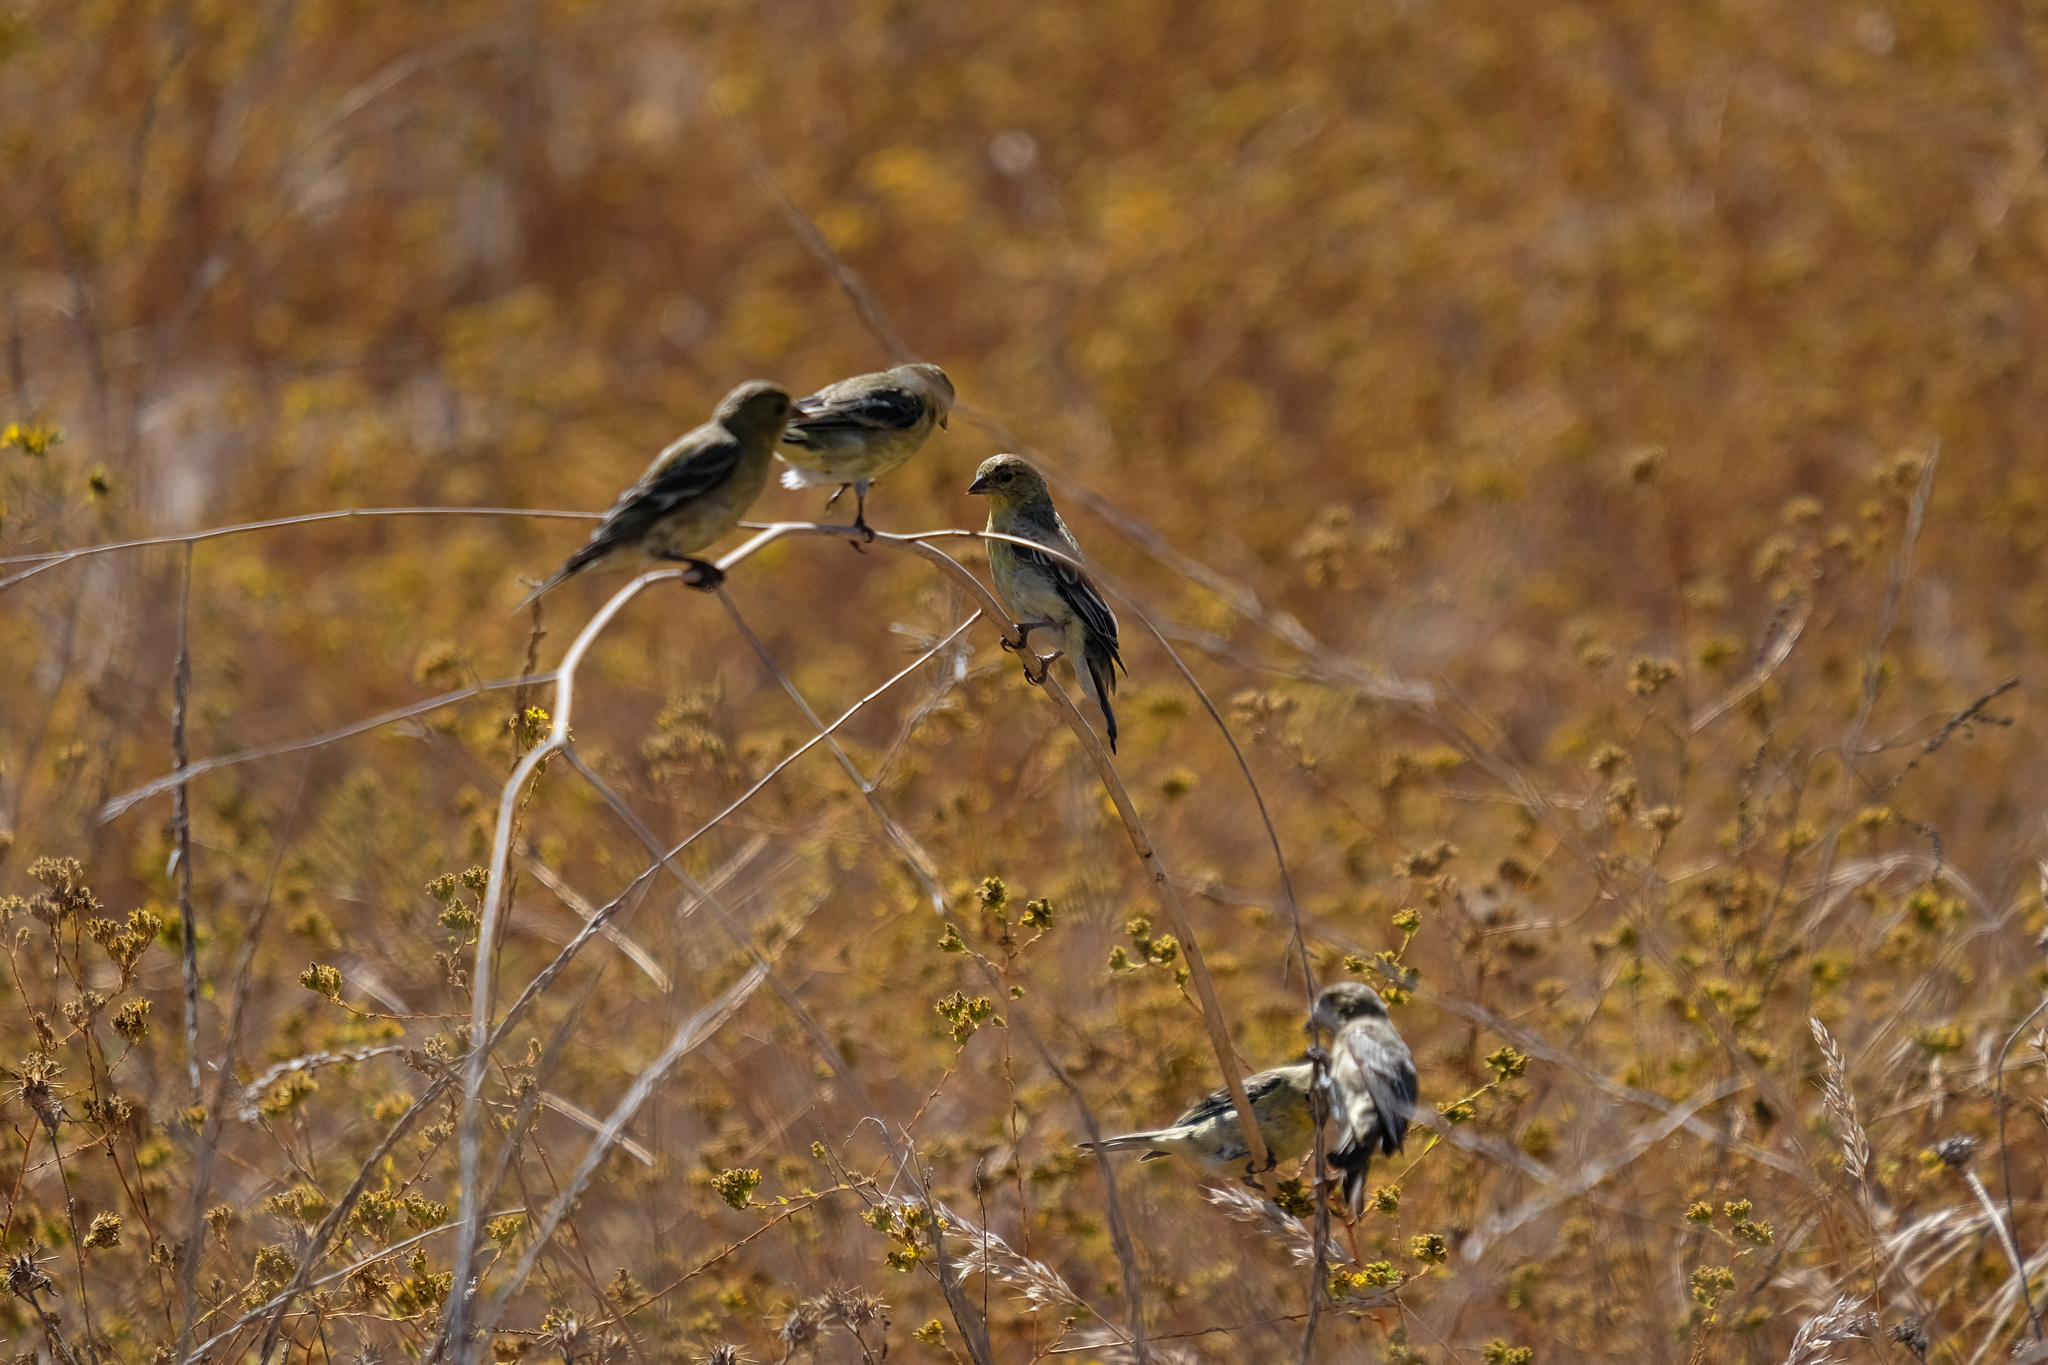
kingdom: Animalia
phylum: Chordata
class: Aves
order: Passeriformes
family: Fringillidae
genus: Spinus
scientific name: Spinus psaltria
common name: Lesser goldfinch
